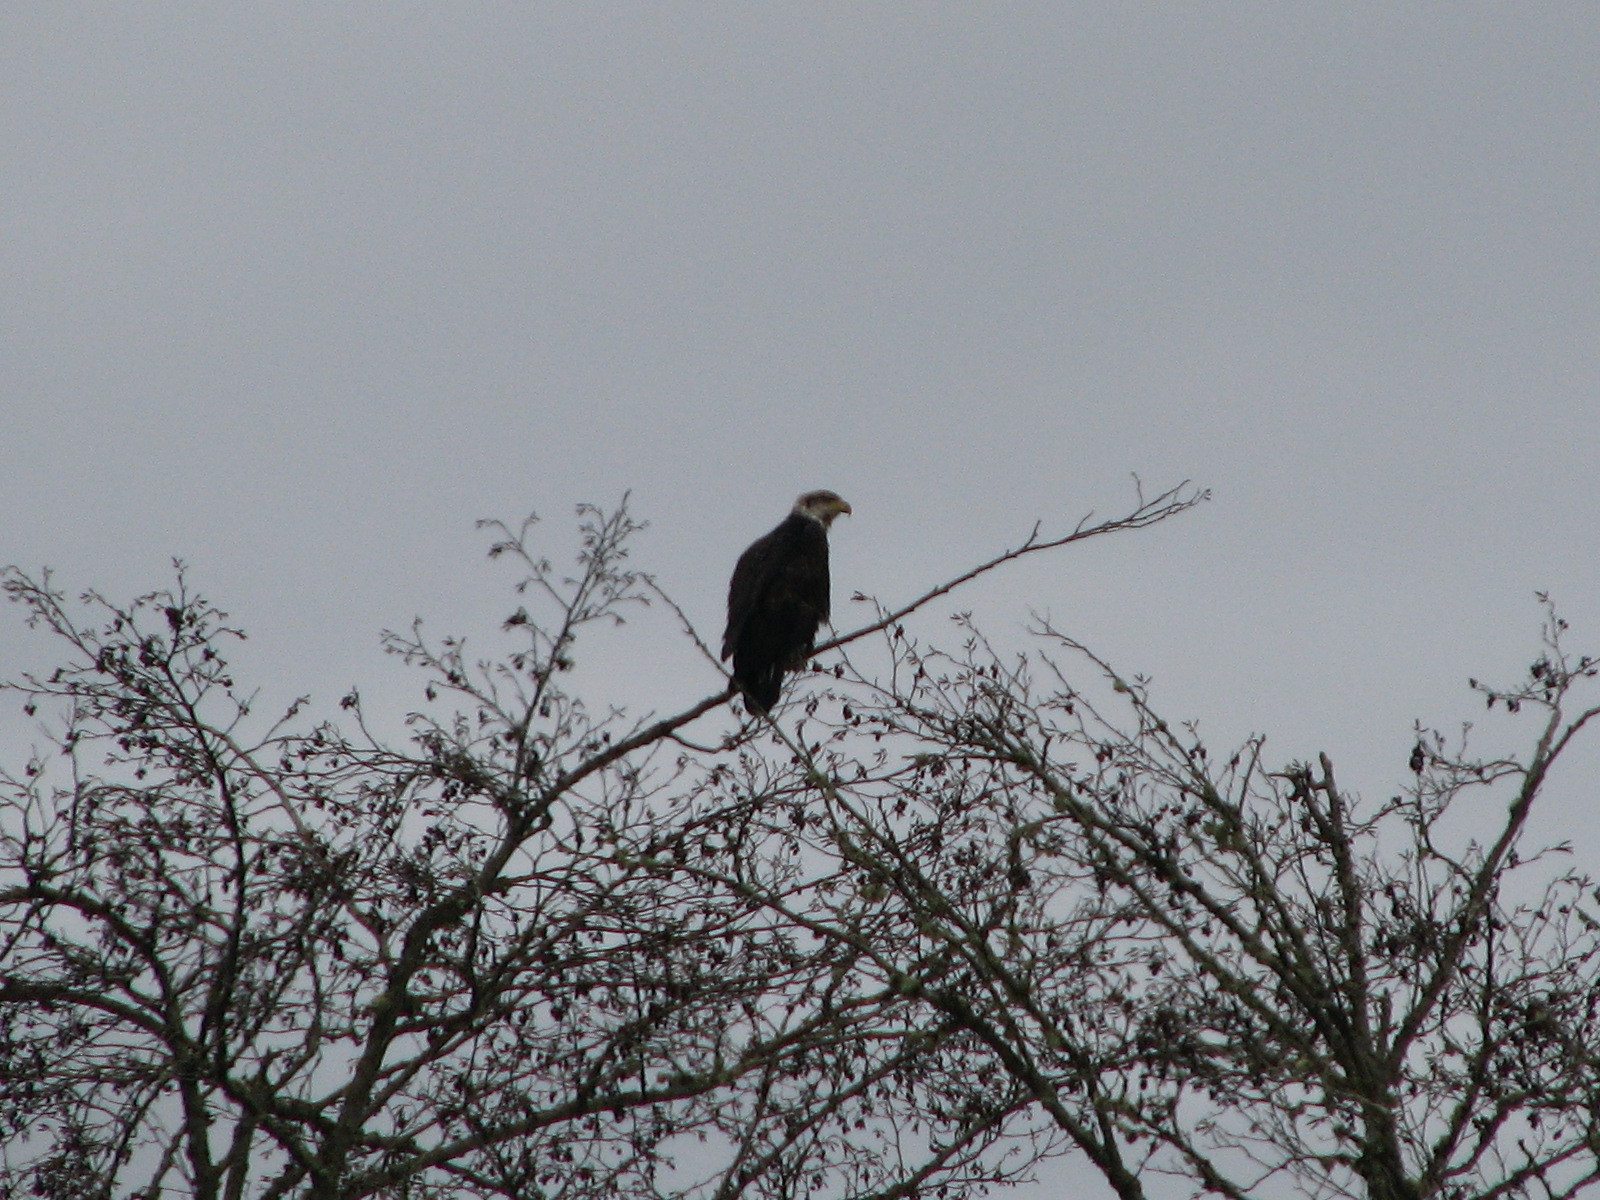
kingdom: Animalia
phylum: Chordata
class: Aves
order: Accipitriformes
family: Accipitridae
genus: Haliaeetus
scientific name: Haliaeetus leucocephalus
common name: Bald eagle
